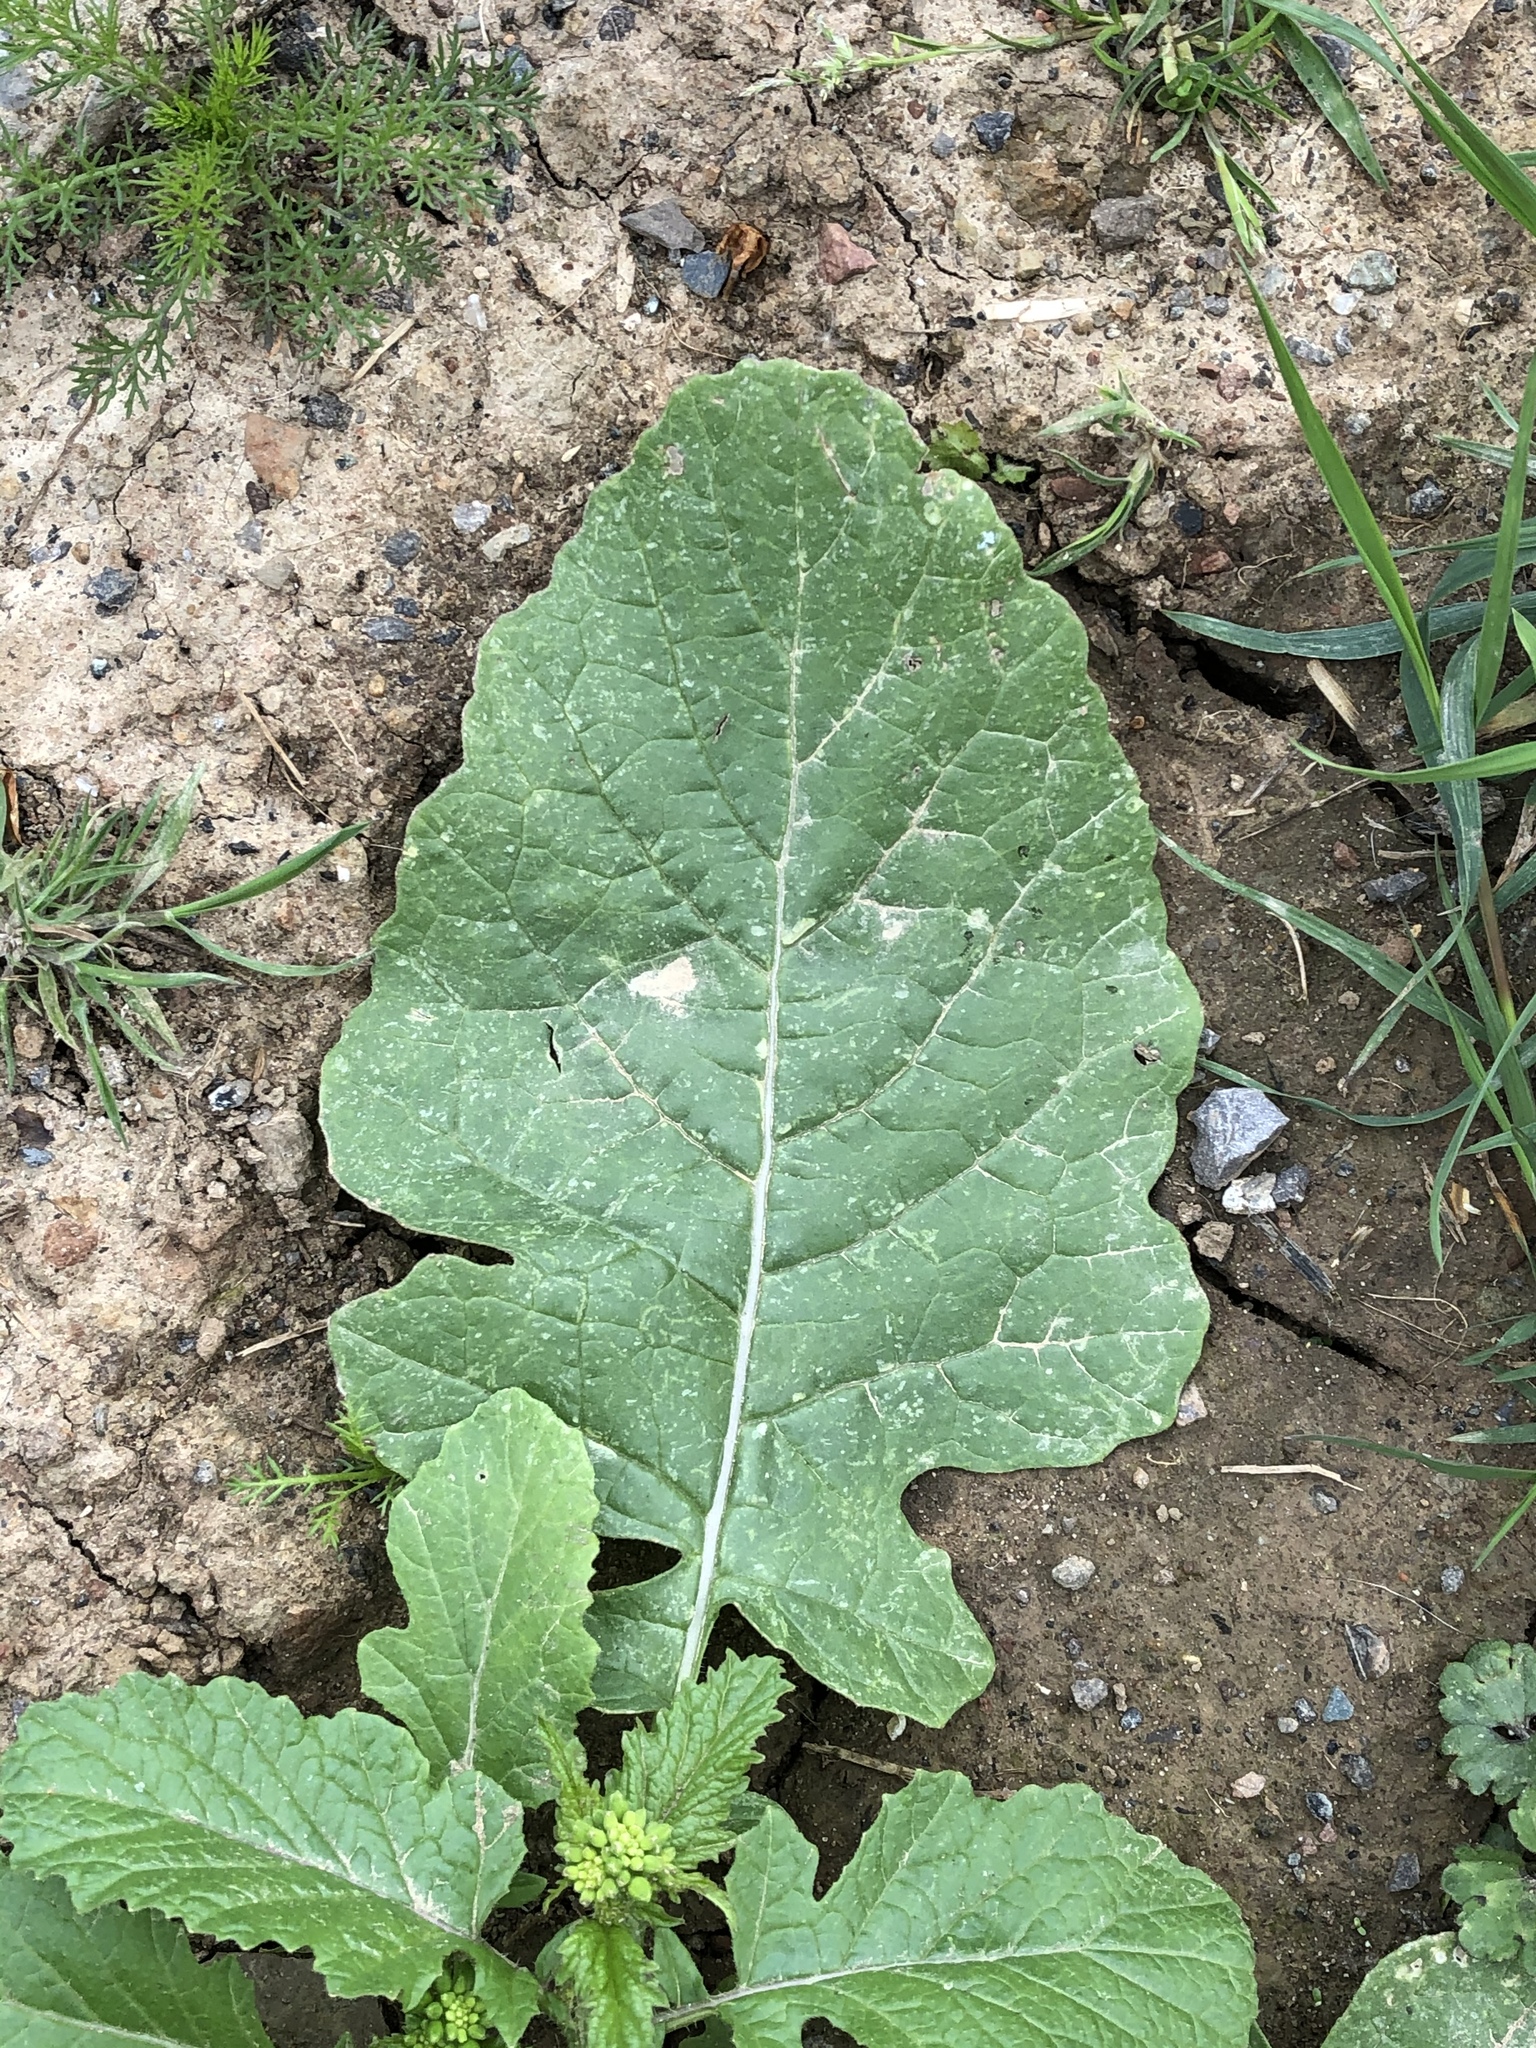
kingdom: Plantae
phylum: Tracheophyta
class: Magnoliopsida
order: Brassicales
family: Brassicaceae
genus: Sinapis
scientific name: Sinapis arvensis
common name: Charlock
